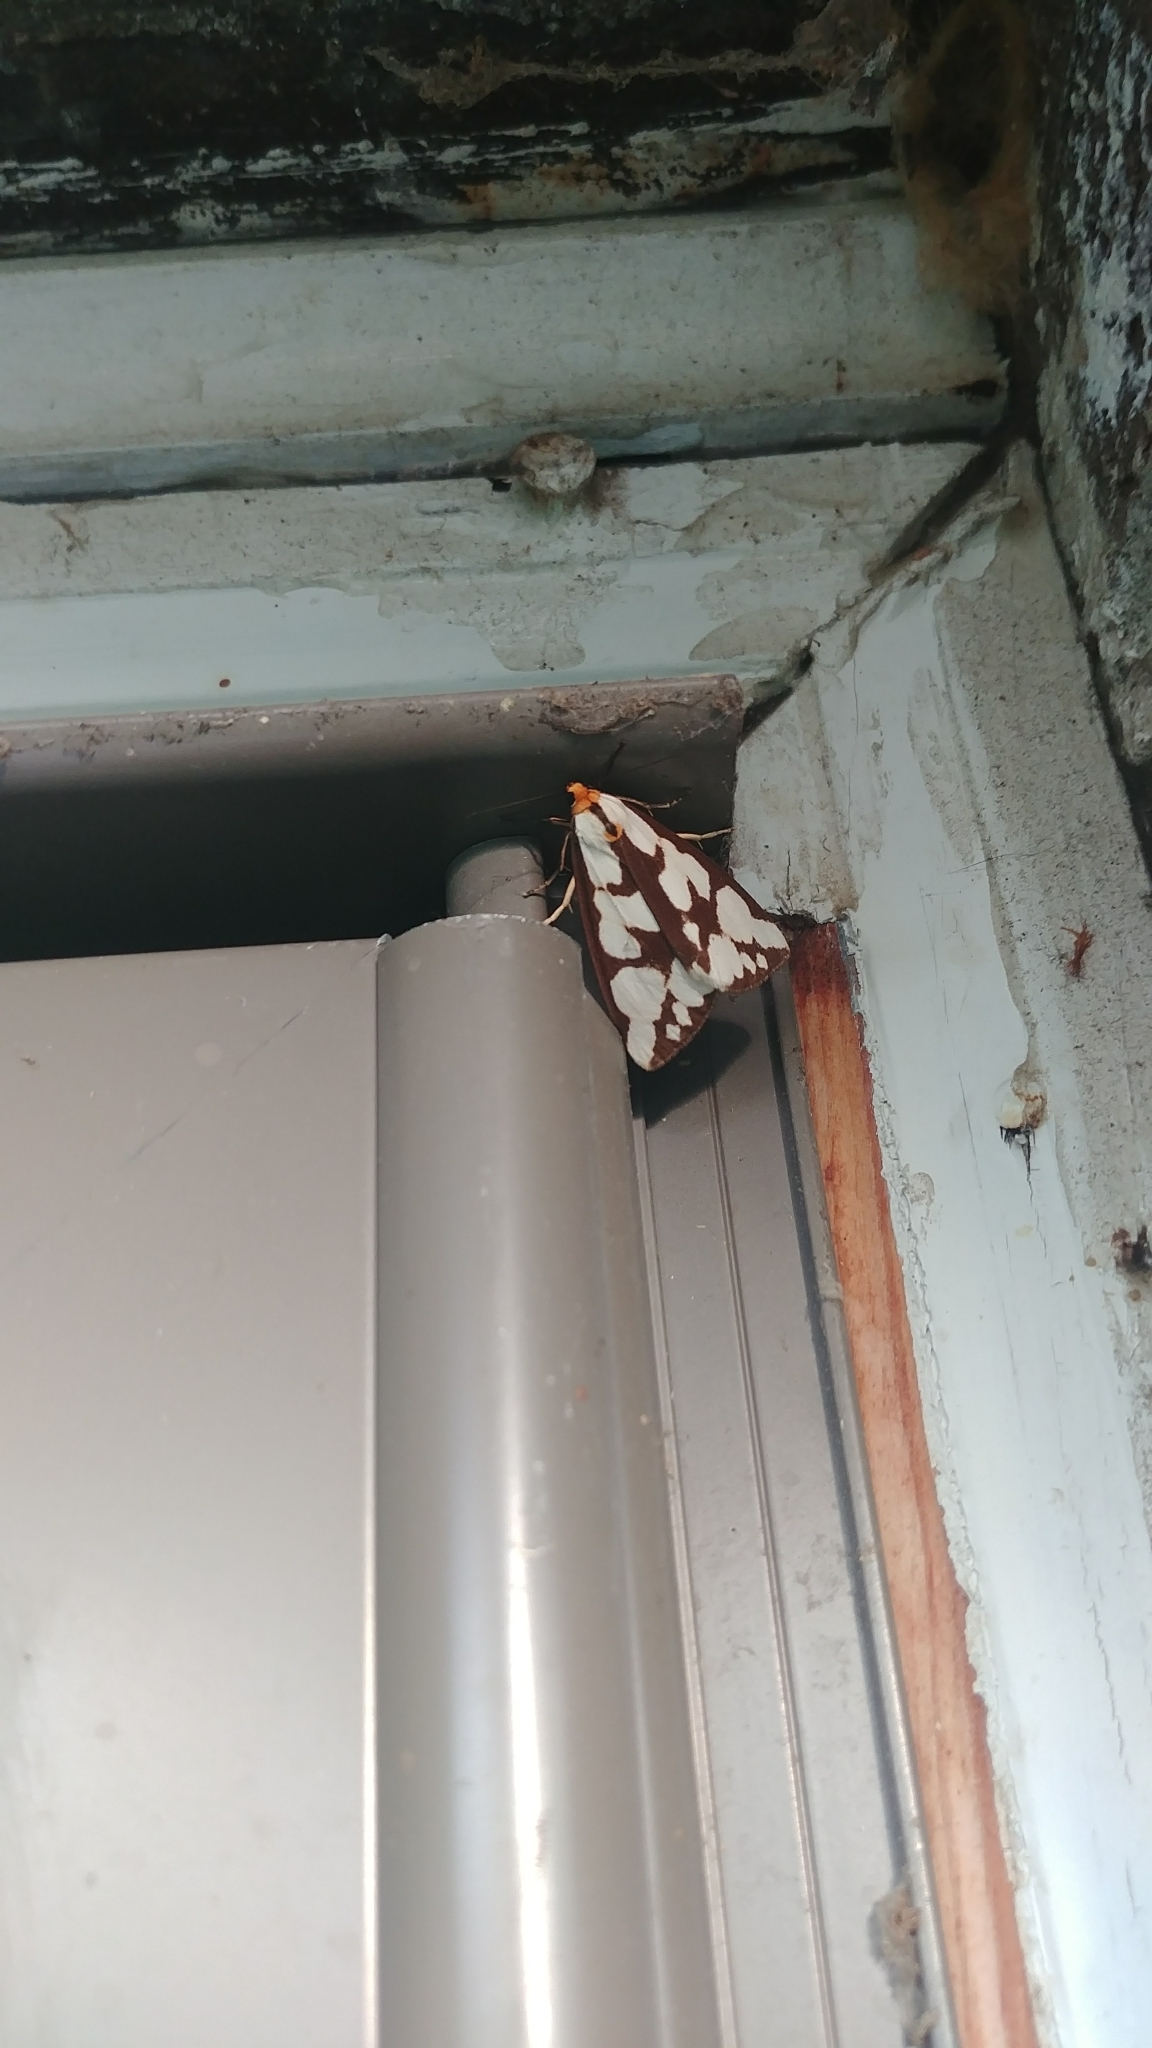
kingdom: Animalia
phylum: Arthropoda
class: Insecta
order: Lepidoptera
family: Erebidae
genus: Haploa
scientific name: Haploa confusa
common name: Confused haploa moth
